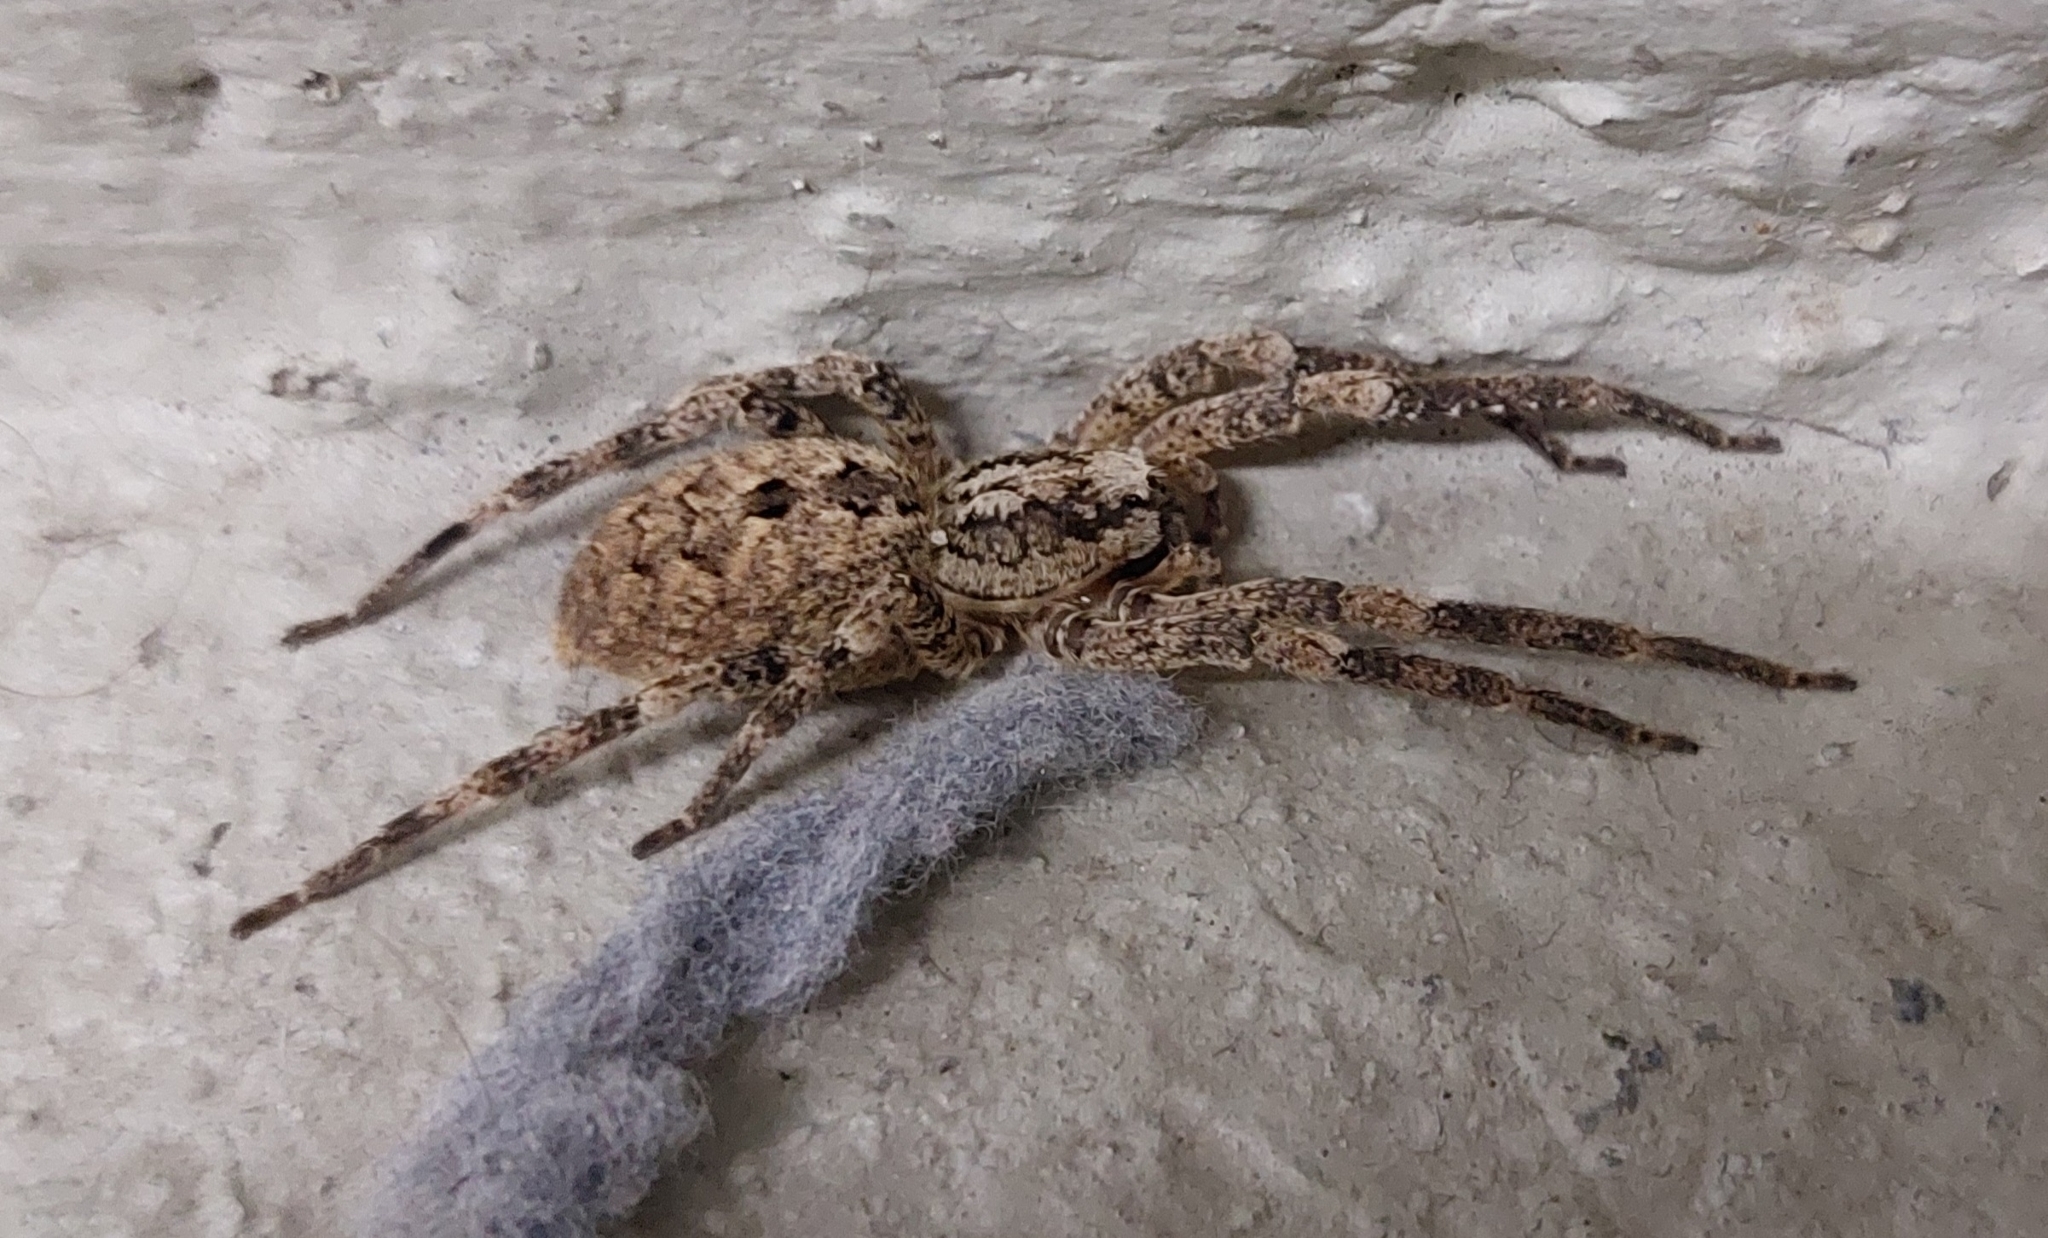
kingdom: Animalia
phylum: Arthropoda
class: Arachnida
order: Araneae
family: Zoropsidae
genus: Zoropsis
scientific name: Zoropsis spinimana
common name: Zoropsid spider
